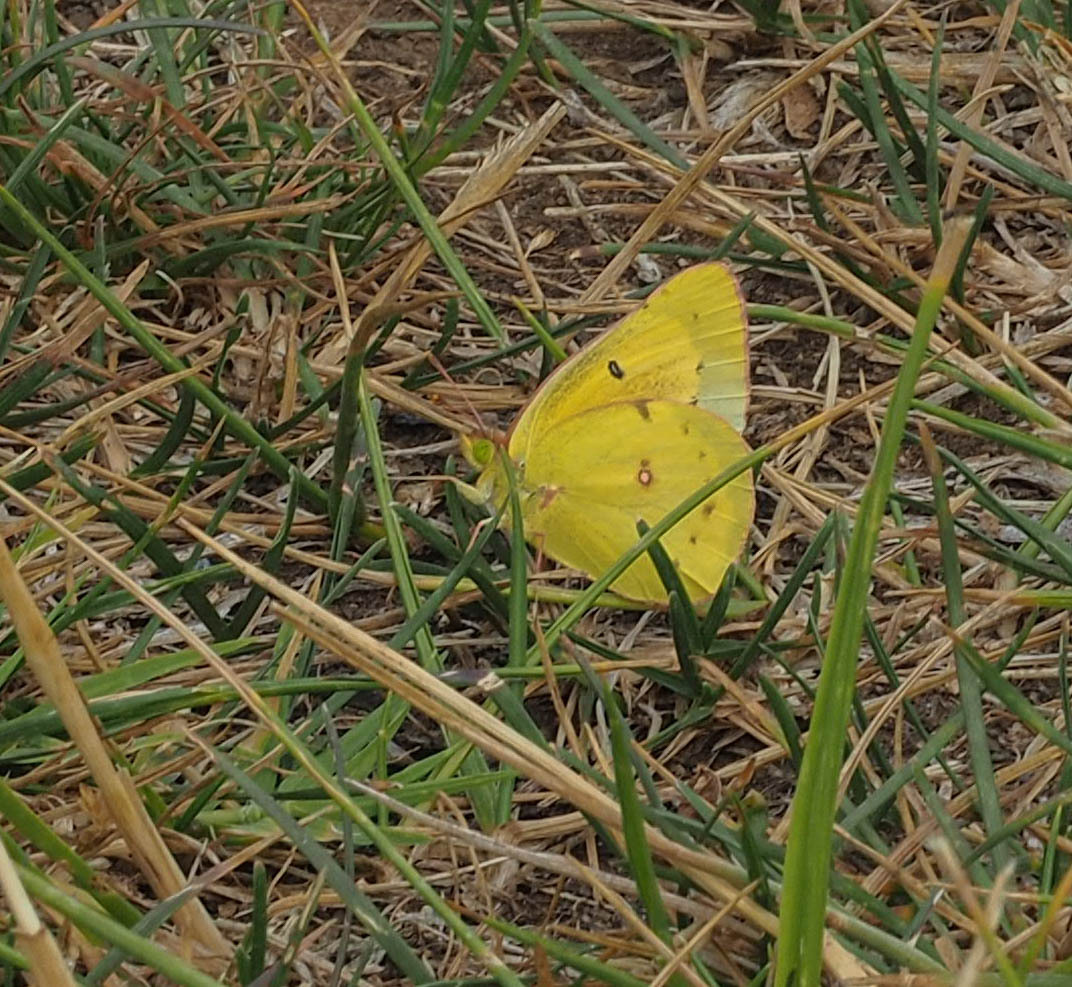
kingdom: Animalia
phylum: Arthropoda
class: Insecta
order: Lepidoptera
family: Pieridae
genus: Colias
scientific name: Colias eurytheme
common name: Alfalfa butterfly
